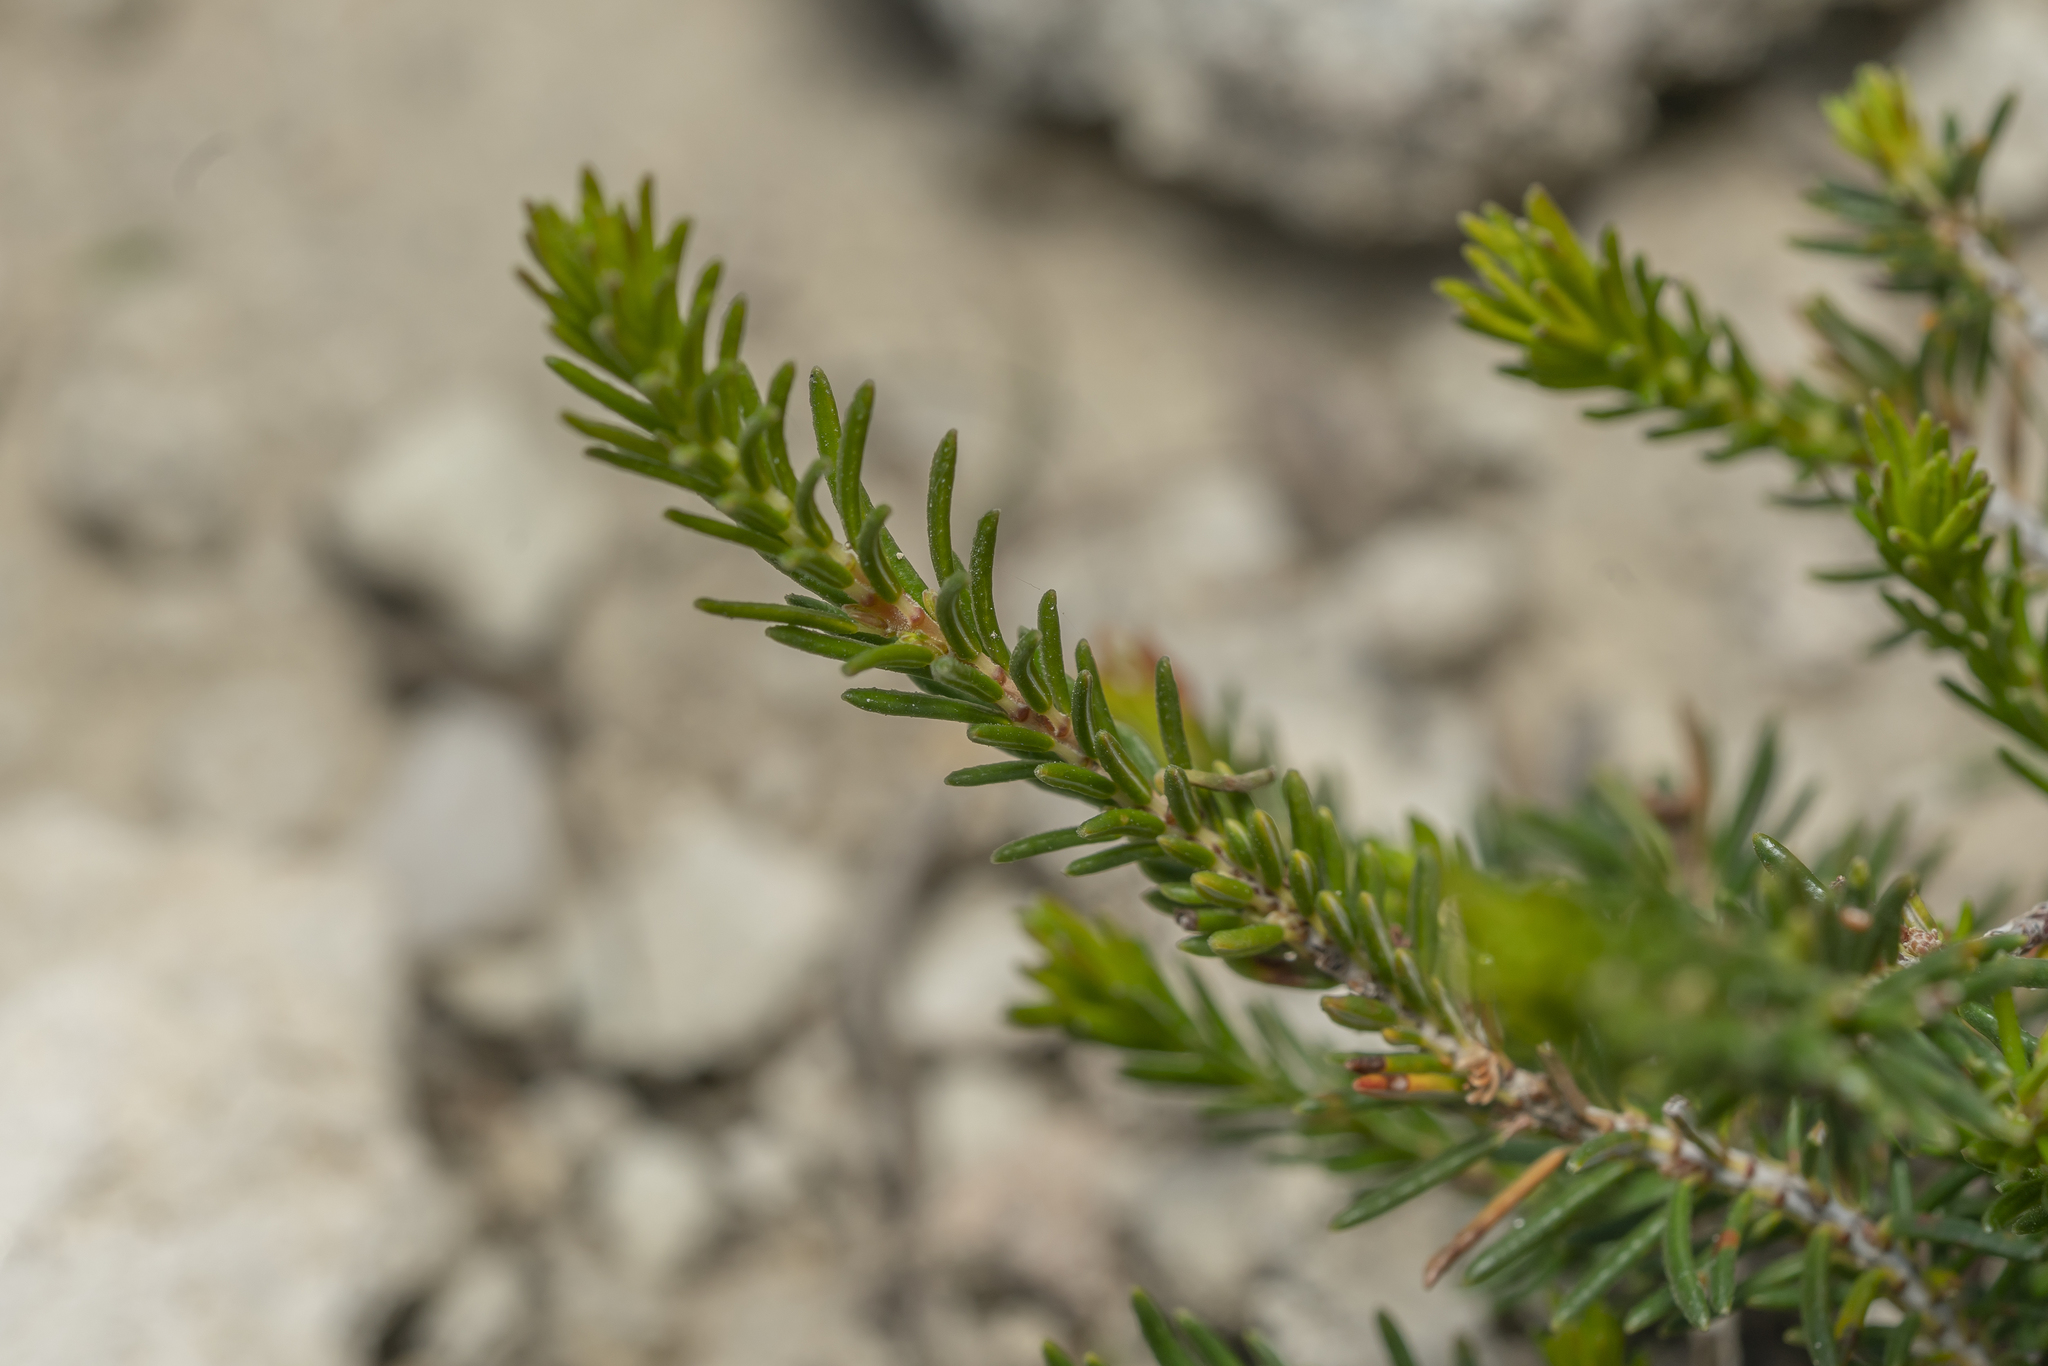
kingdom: Plantae
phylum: Tracheophyta
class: Magnoliopsida
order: Ericales
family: Ericaceae
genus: Erica
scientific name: Erica manipuliflora
